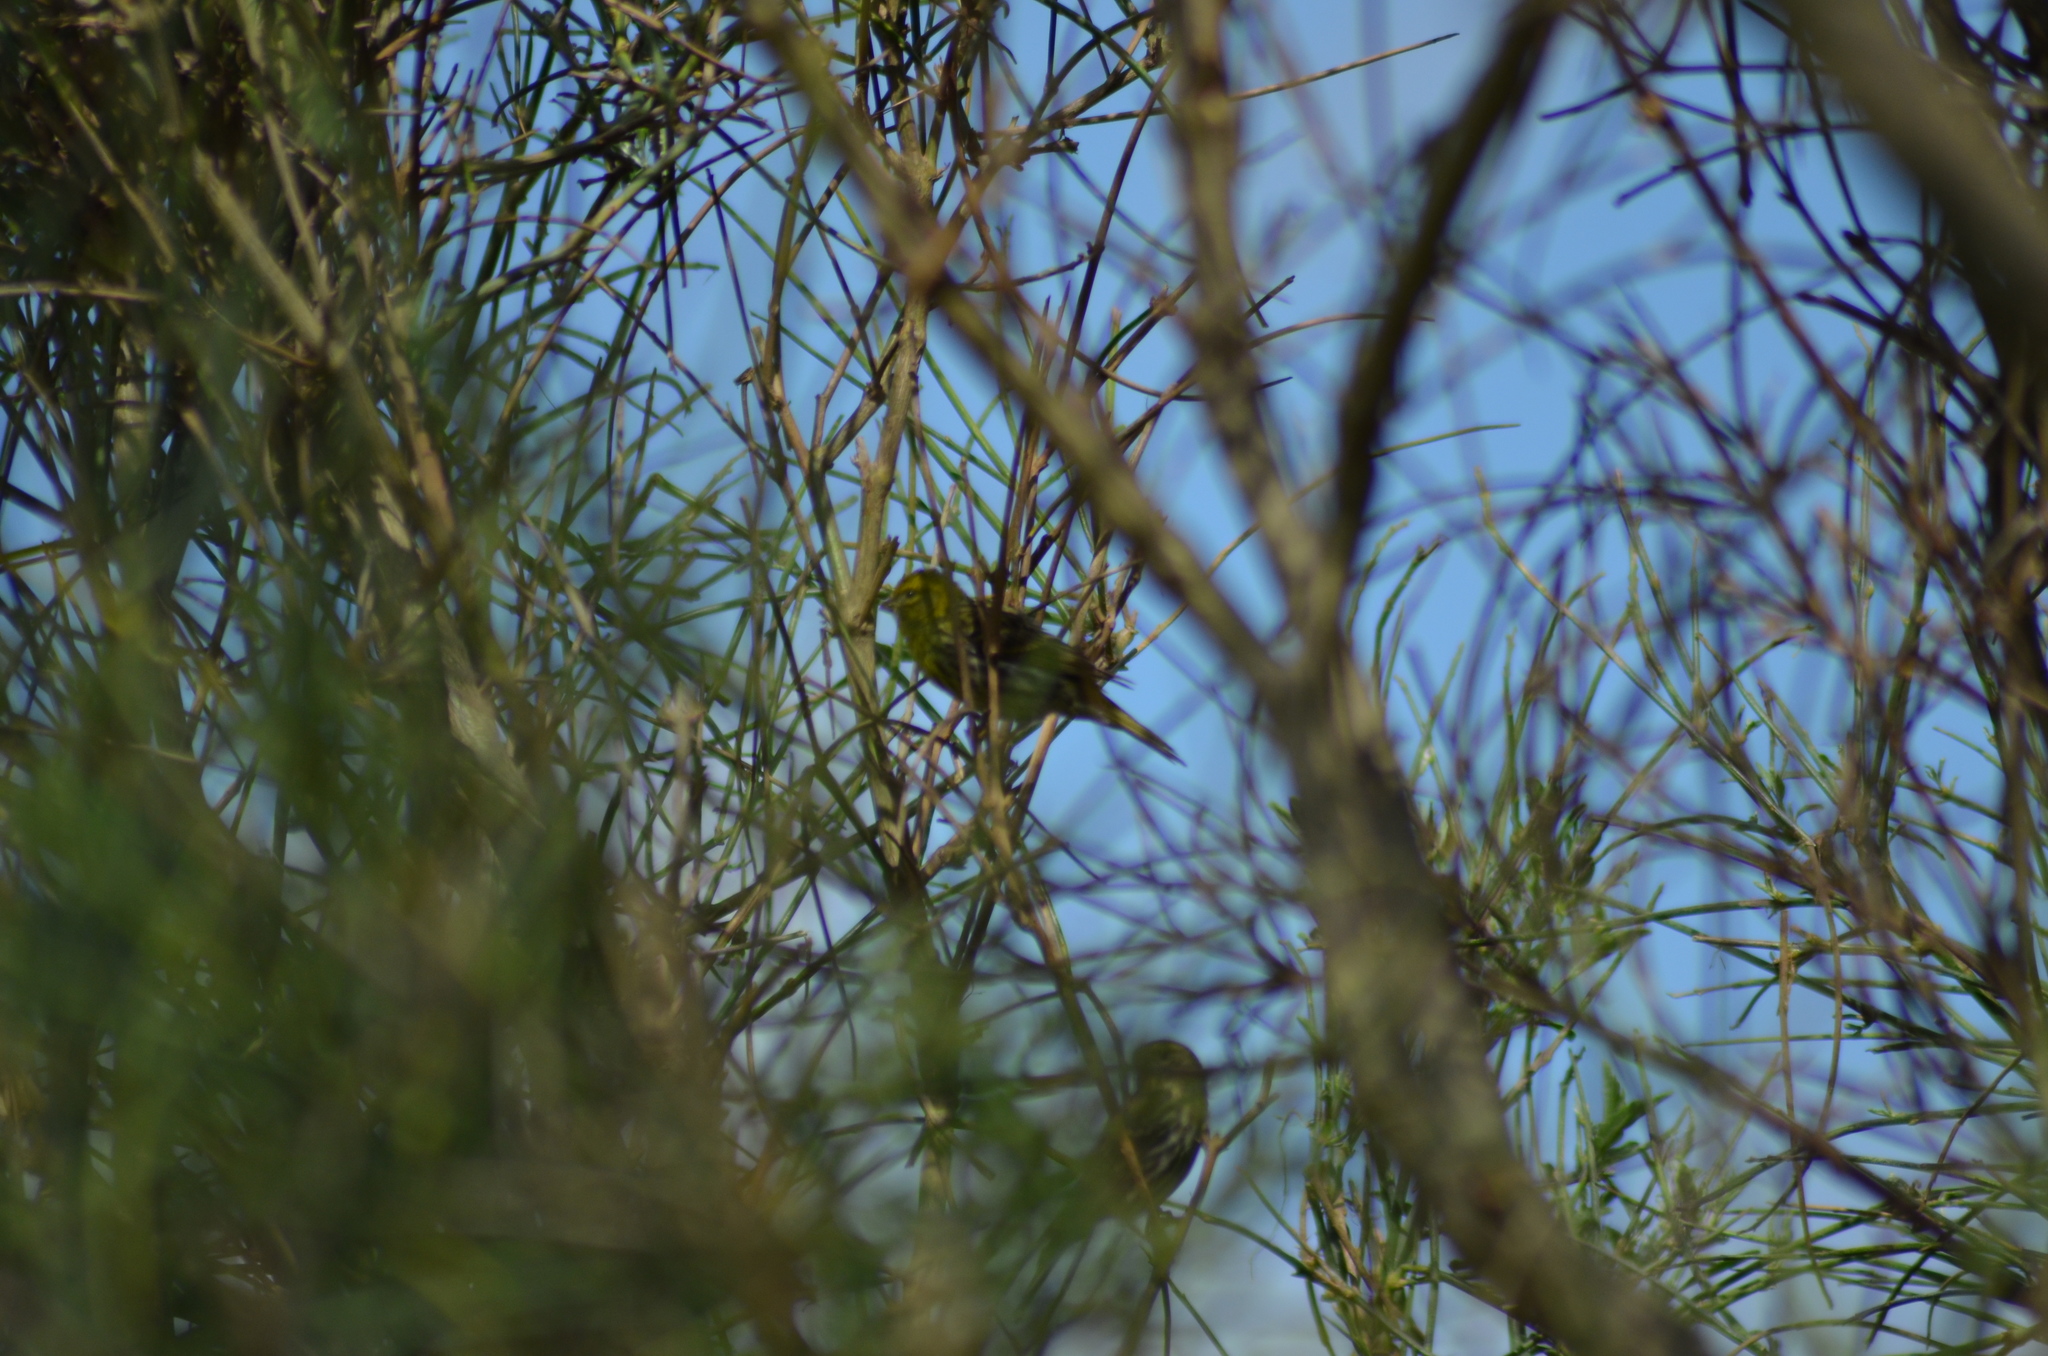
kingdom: Animalia
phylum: Chordata
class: Aves
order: Passeriformes
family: Fringillidae
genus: Serinus
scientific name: Serinus serinus
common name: European serin
